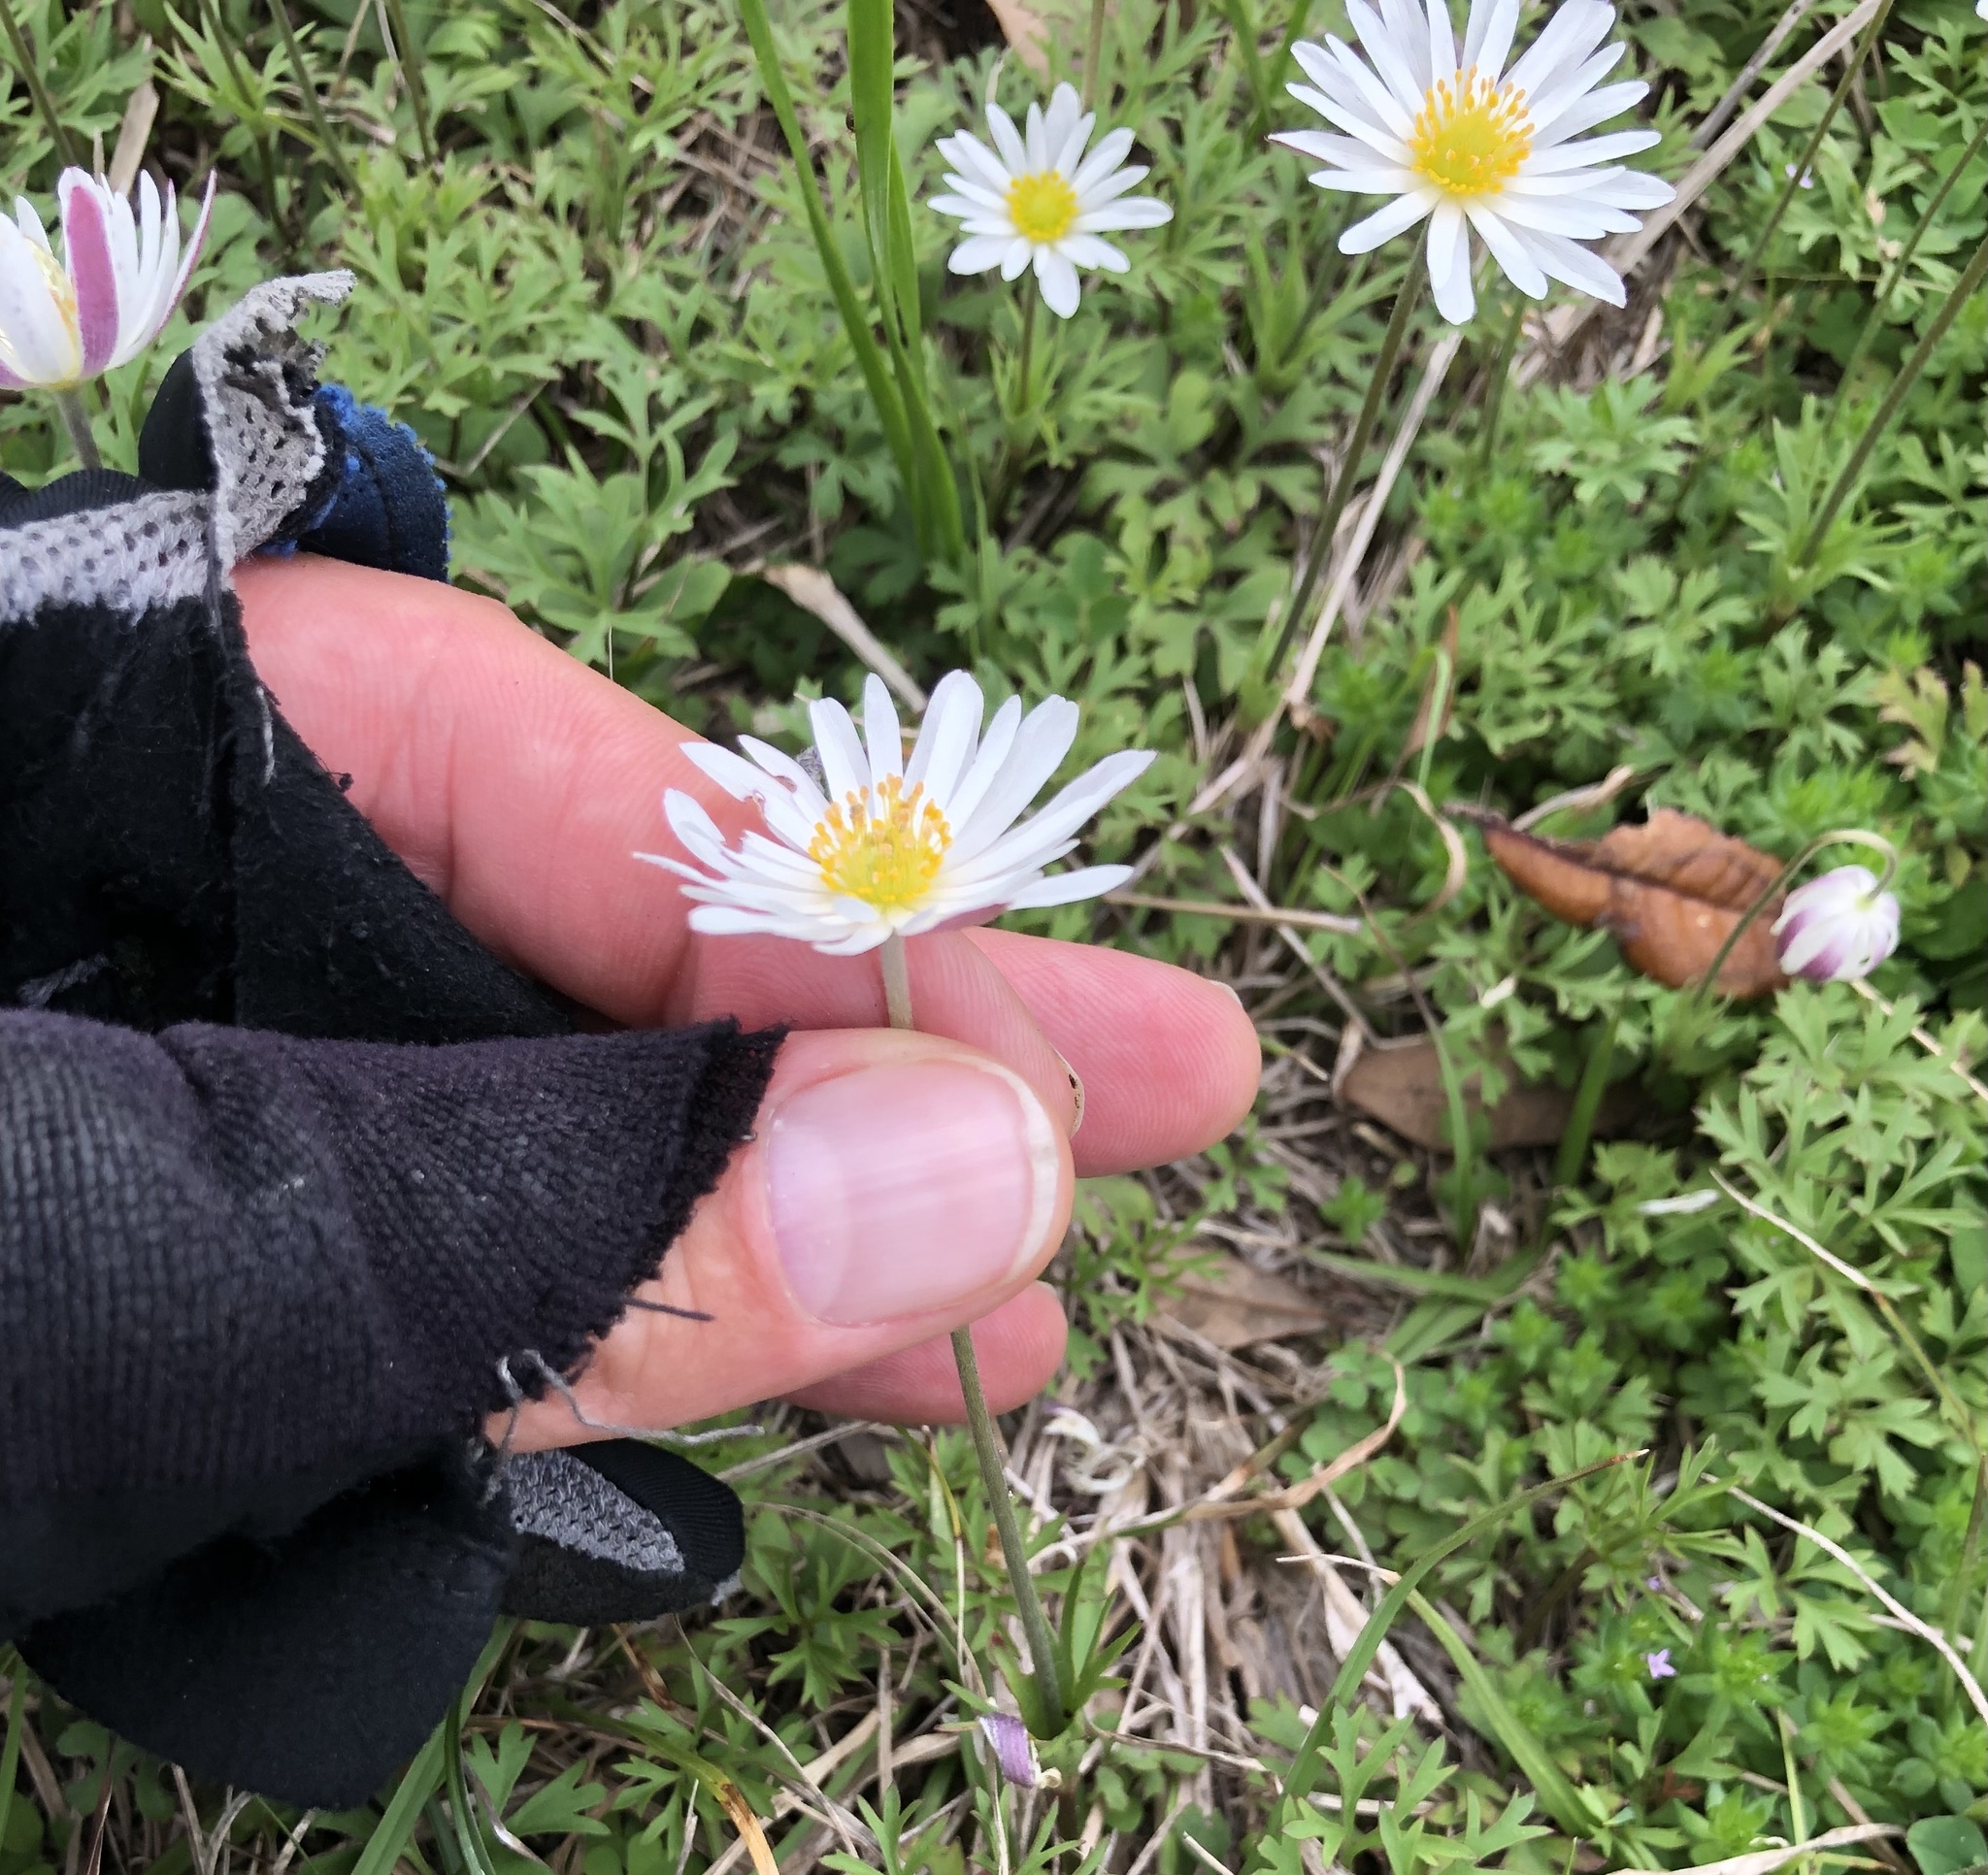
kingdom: Plantae
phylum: Tracheophyta
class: Magnoliopsida
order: Ranunculales
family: Ranunculaceae
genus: Anemone
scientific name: Anemone caroliniana
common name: Carolina anemone
